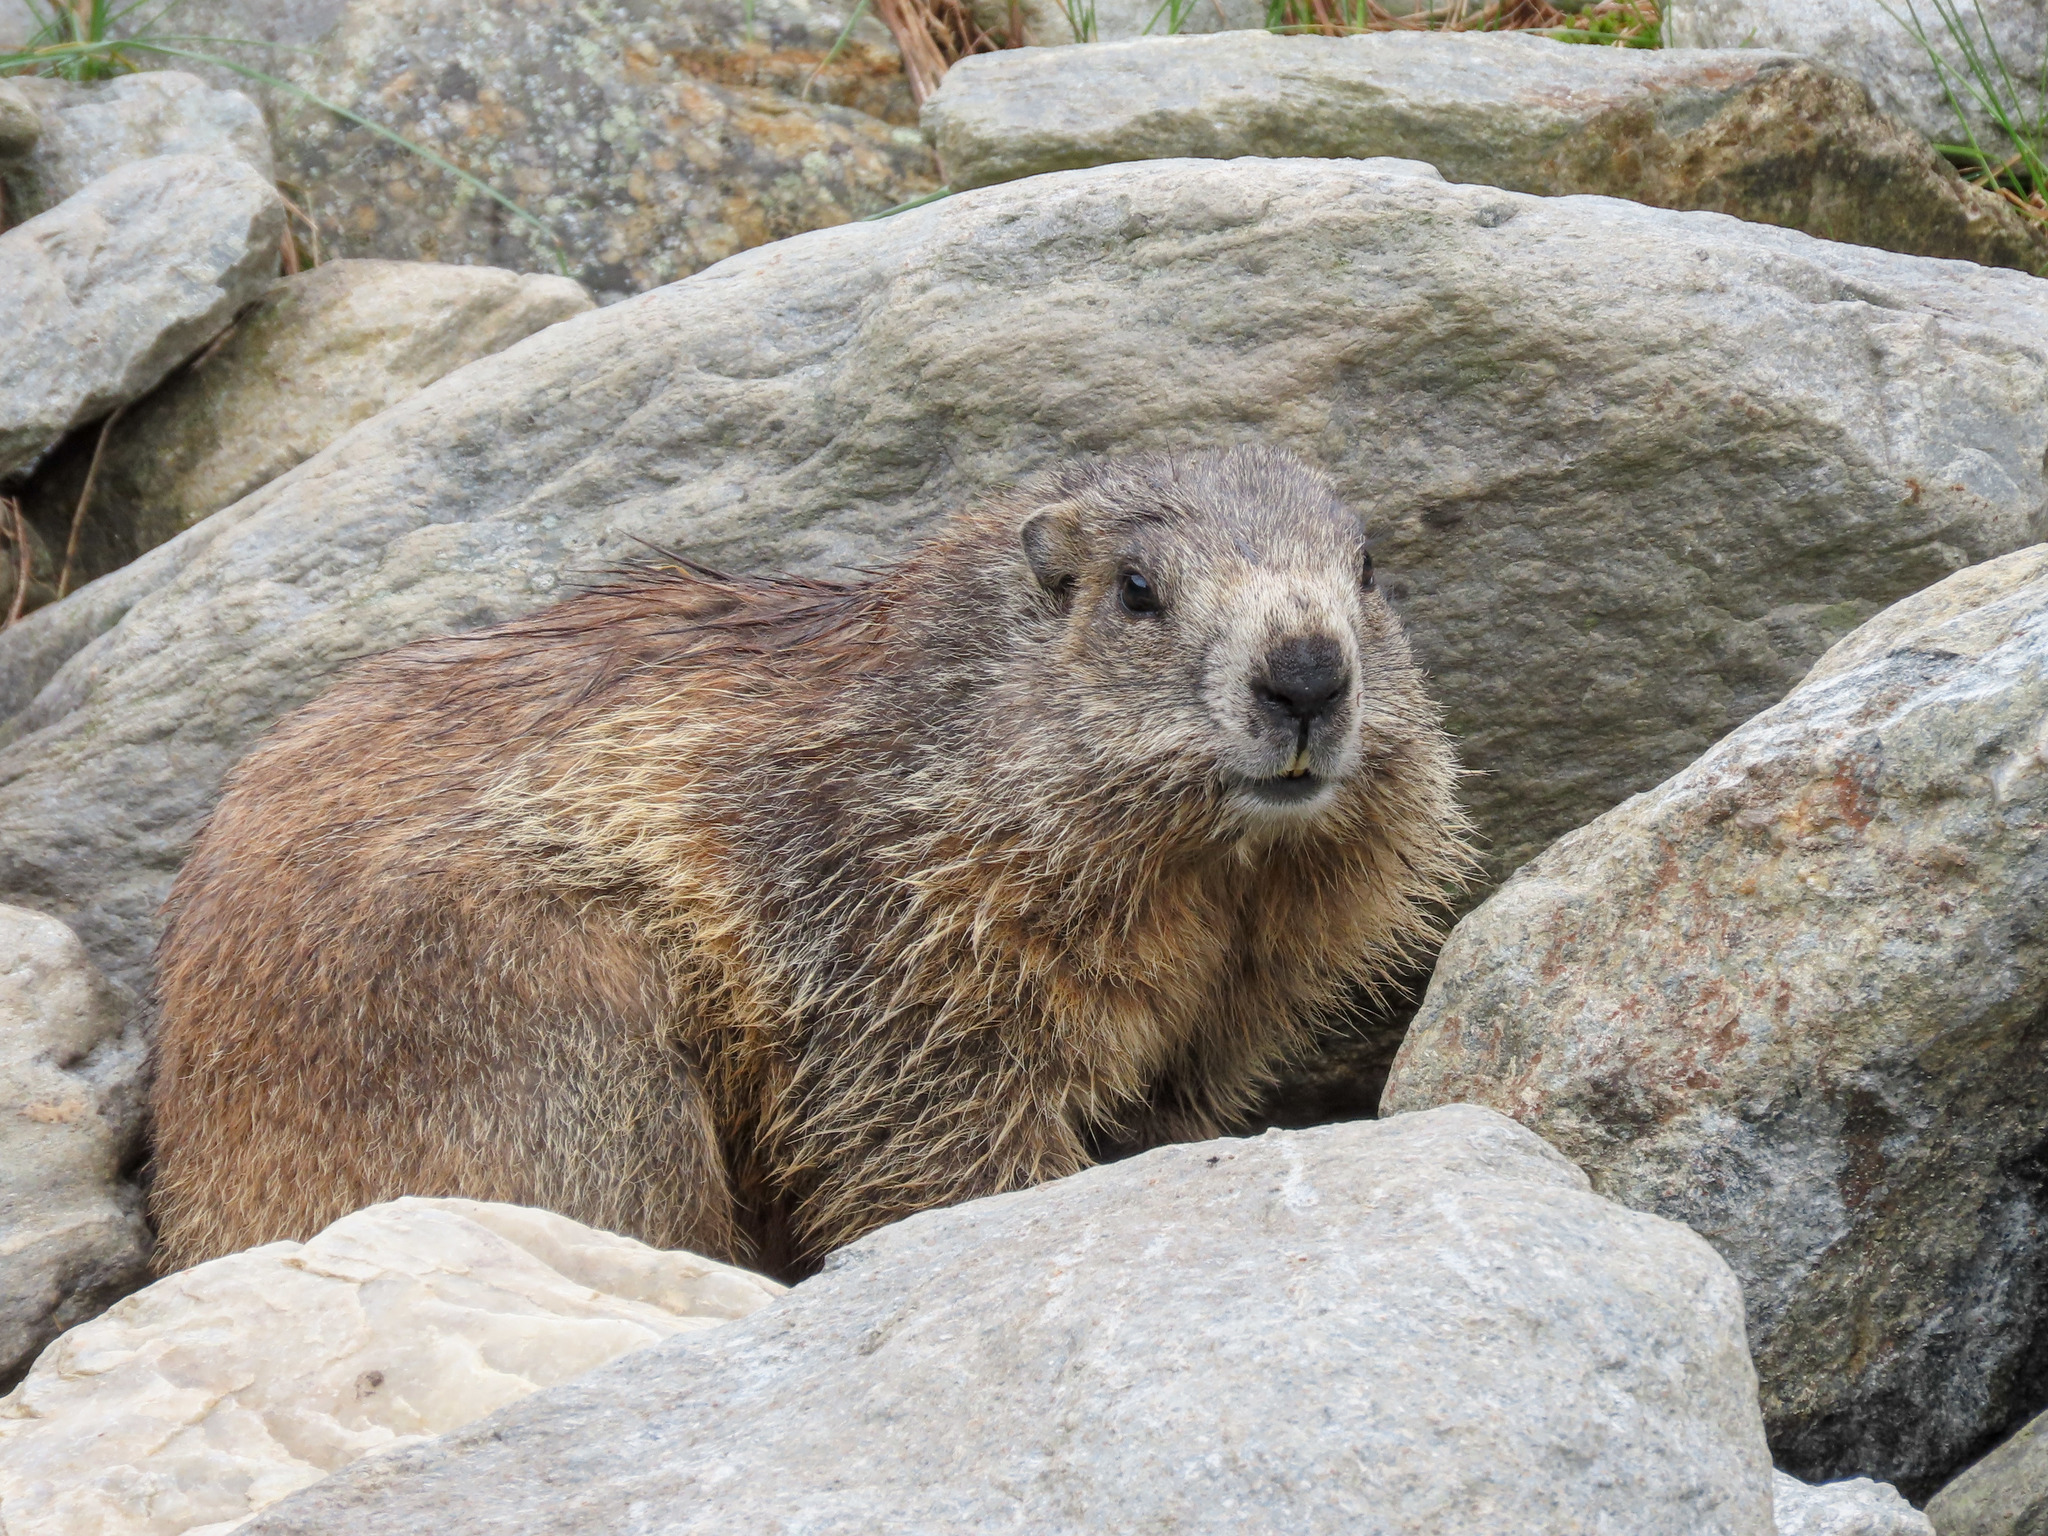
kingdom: Animalia
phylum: Chordata
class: Mammalia
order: Rodentia
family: Sciuridae
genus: Marmota
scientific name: Marmota marmota
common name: Alpine marmot
